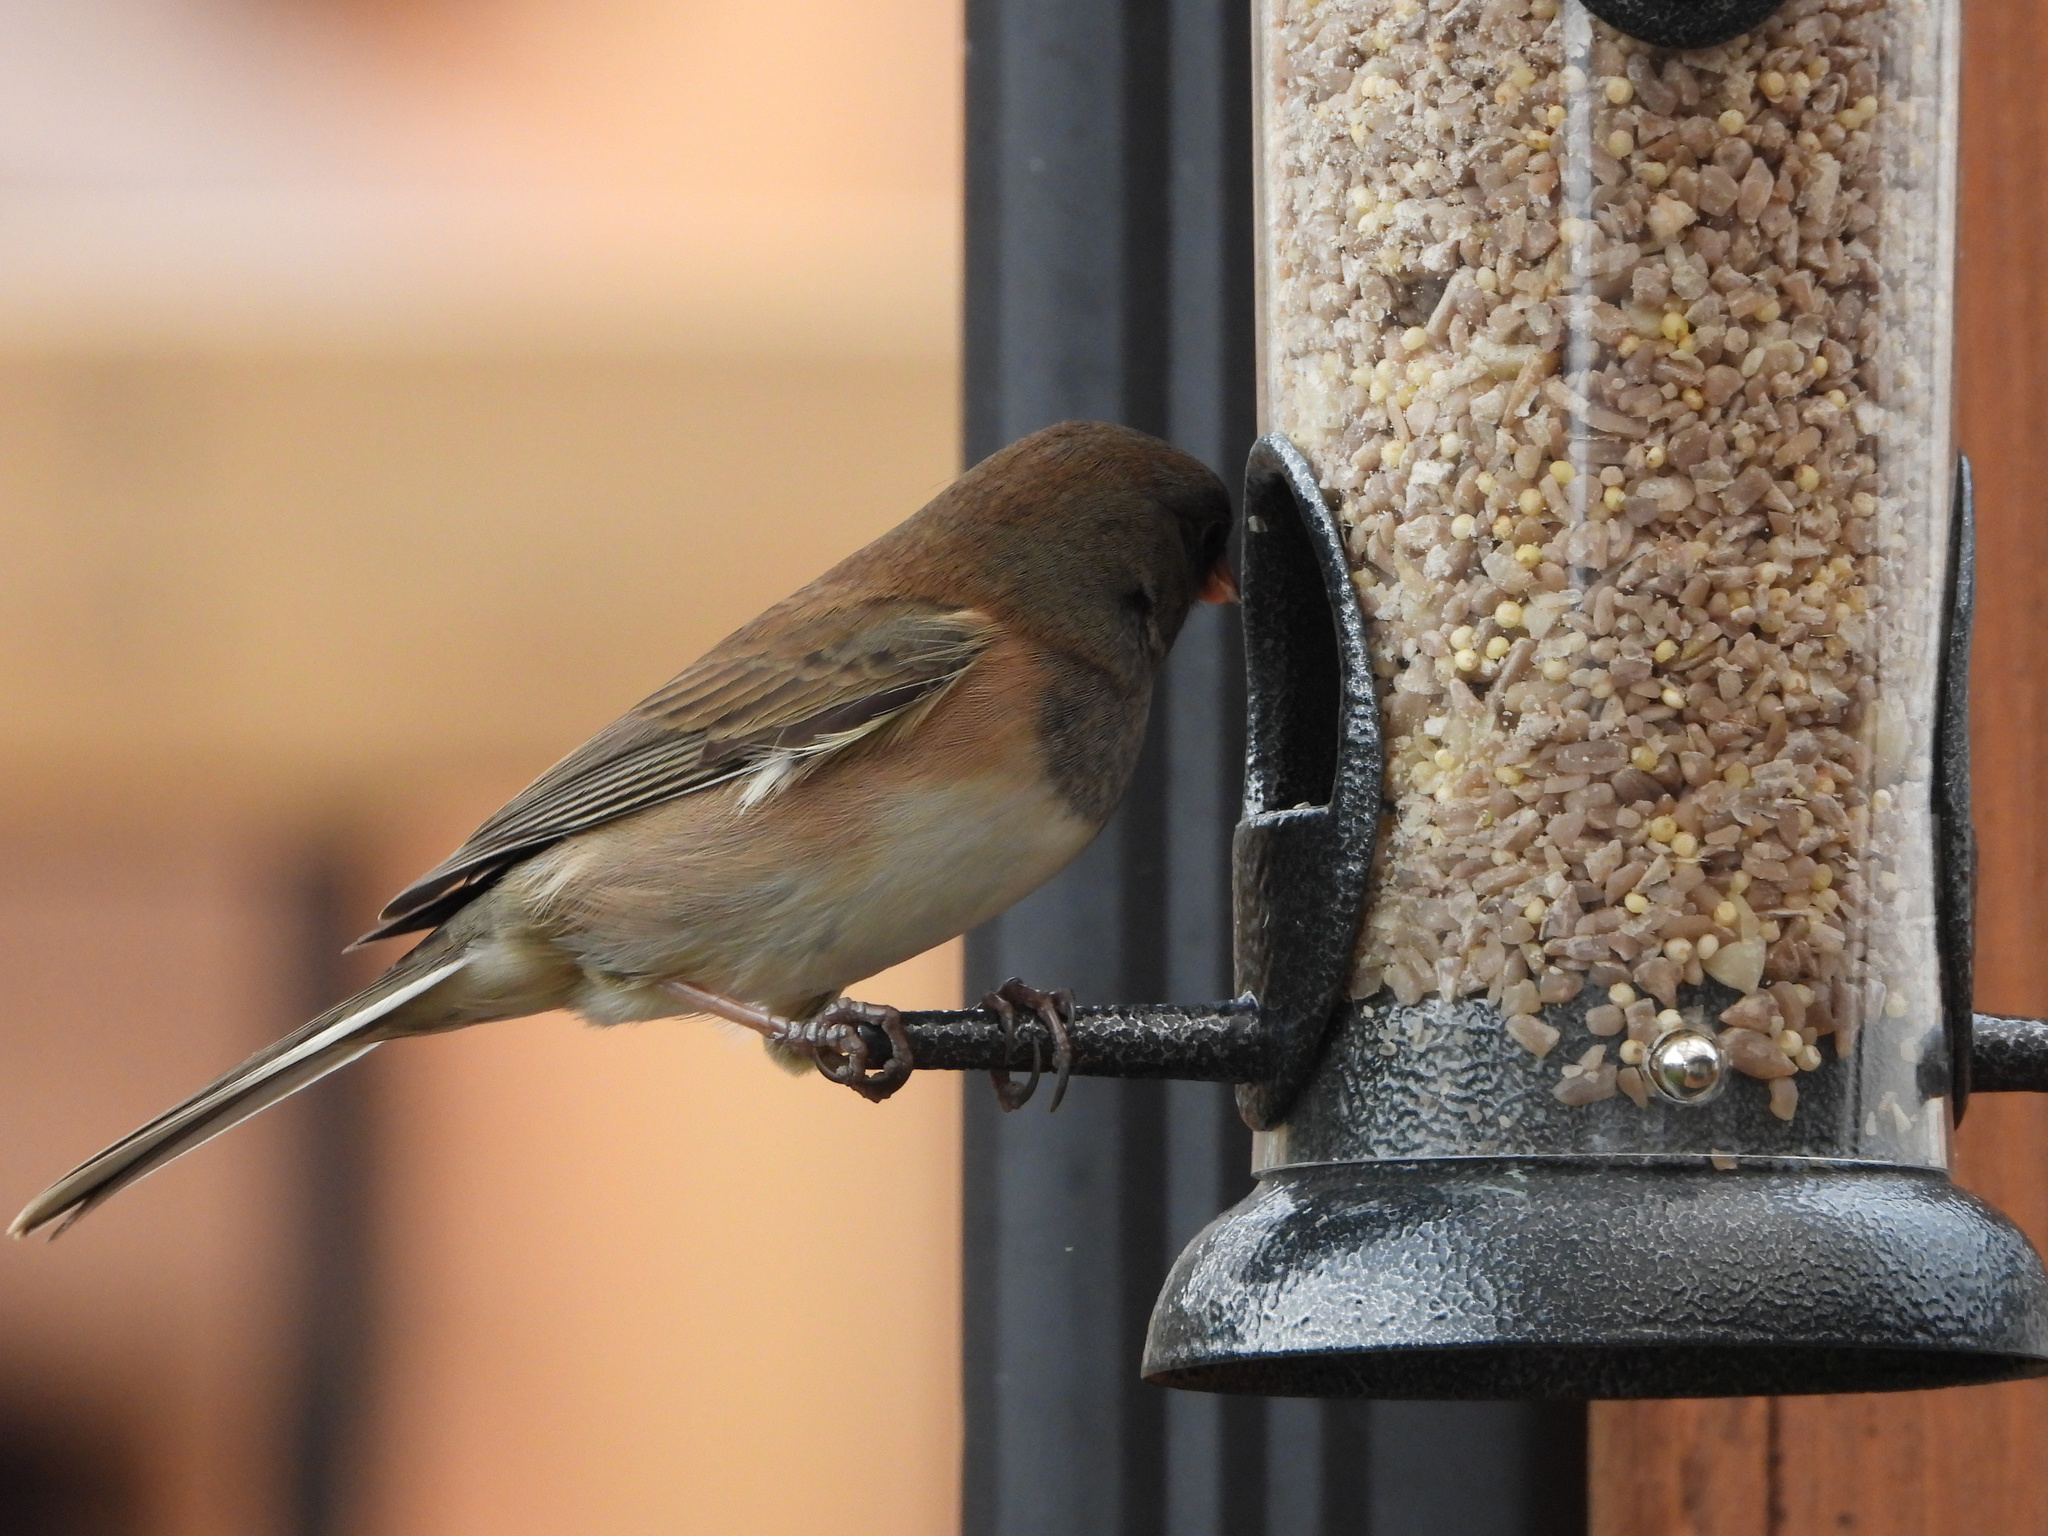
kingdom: Animalia
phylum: Chordata
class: Aves
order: Passeriformes
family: Passerellidae
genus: Junco
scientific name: Junco hyemalis
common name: Dark-eyed junco
